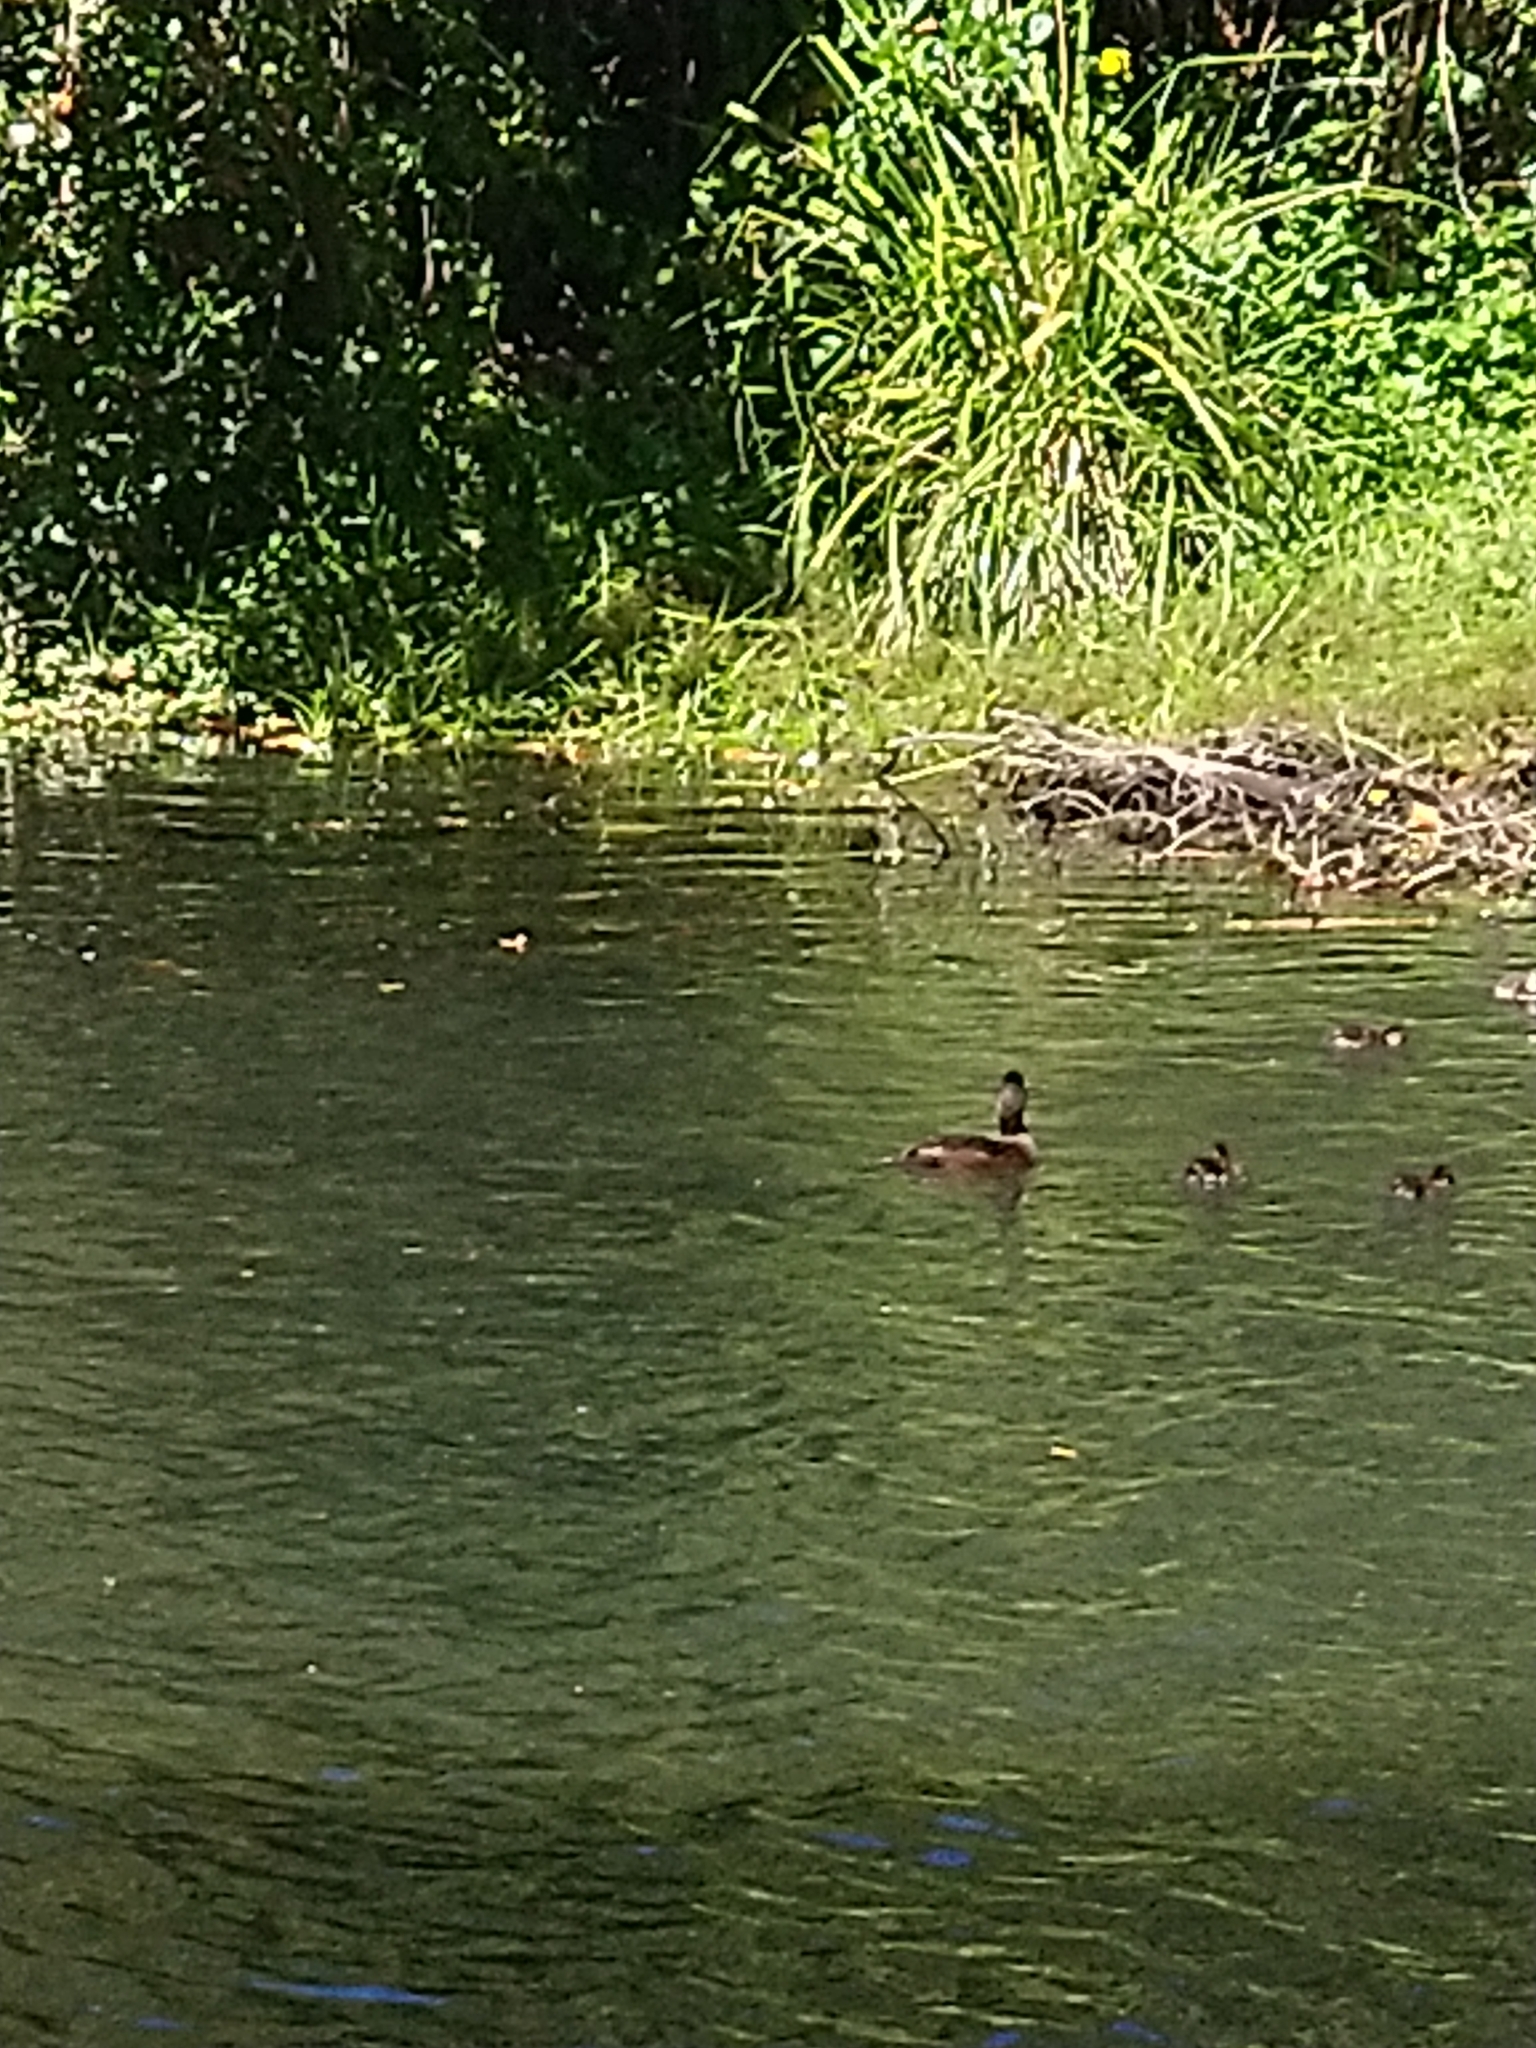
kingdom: Animalia
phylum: Chordata
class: Aves
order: Anseriformes
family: Anatidae
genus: Aythya
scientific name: Aythya novaeseelandiae
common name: New zealand scaup
